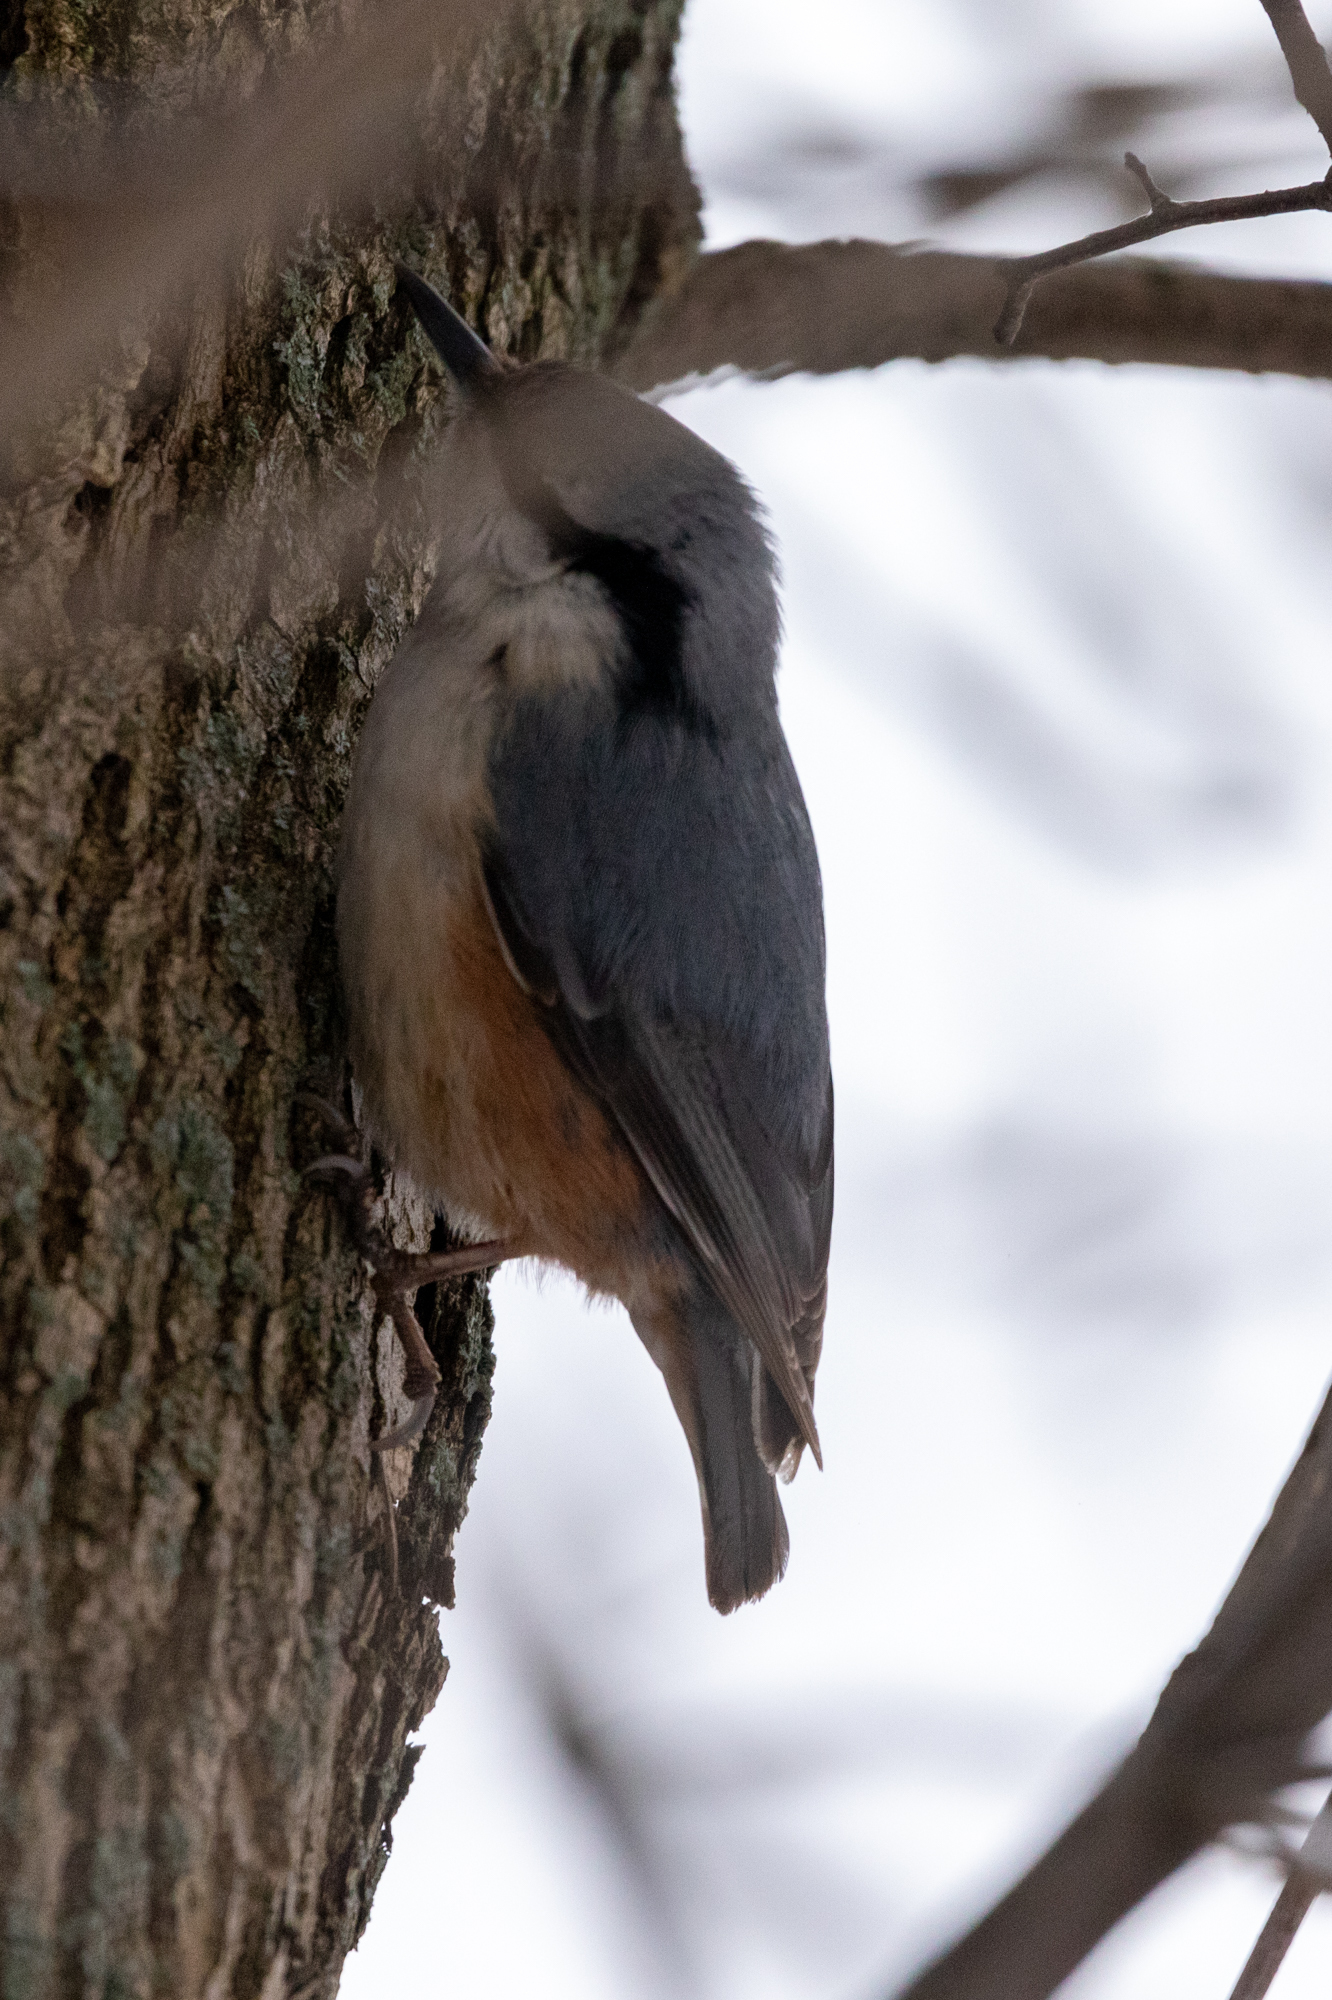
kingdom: Animalia
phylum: Chordata
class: Aves
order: Passeriformes
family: Sittidae
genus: Sitta
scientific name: Sitta europaea
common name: Eurasian nuthatch
